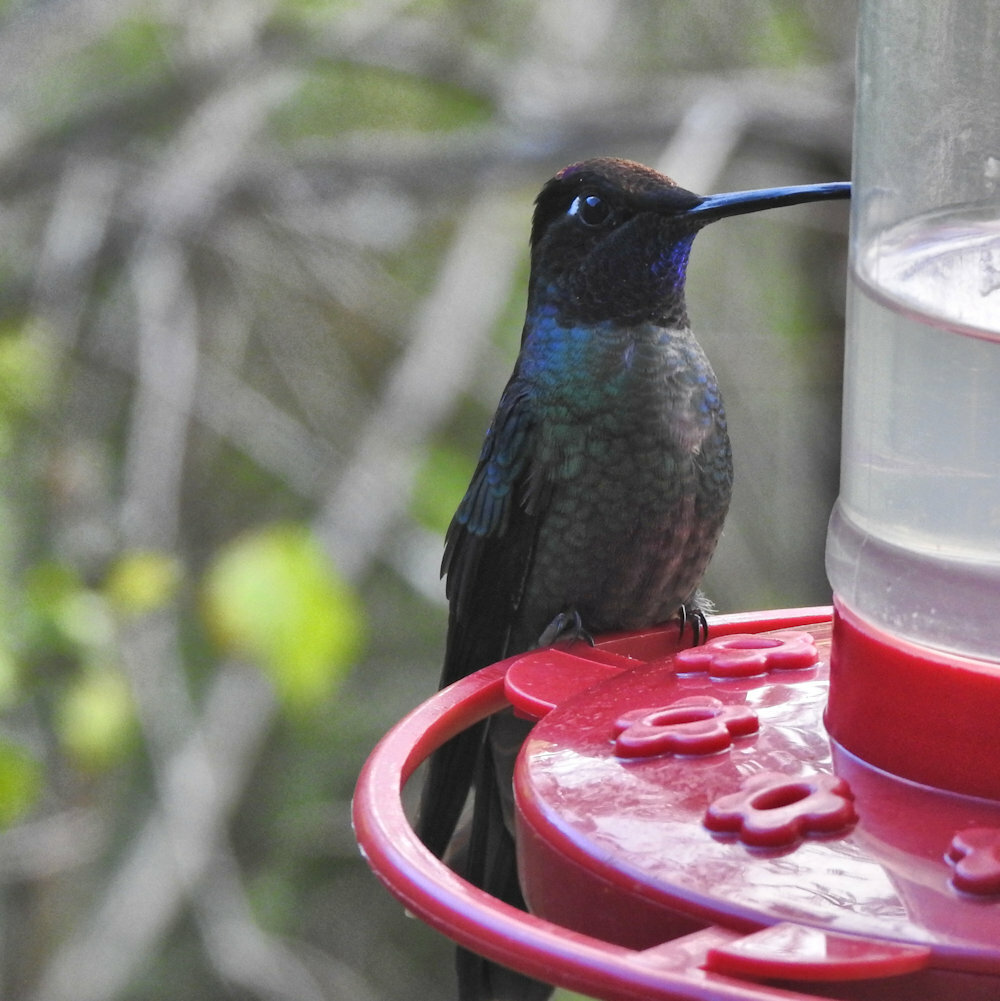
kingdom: Animalia
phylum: Chordata
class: Aves
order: Apodiformes
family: Trochilidae
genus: Eugenes
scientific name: Eugenes spectabilis
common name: Talamanca hummingbird
